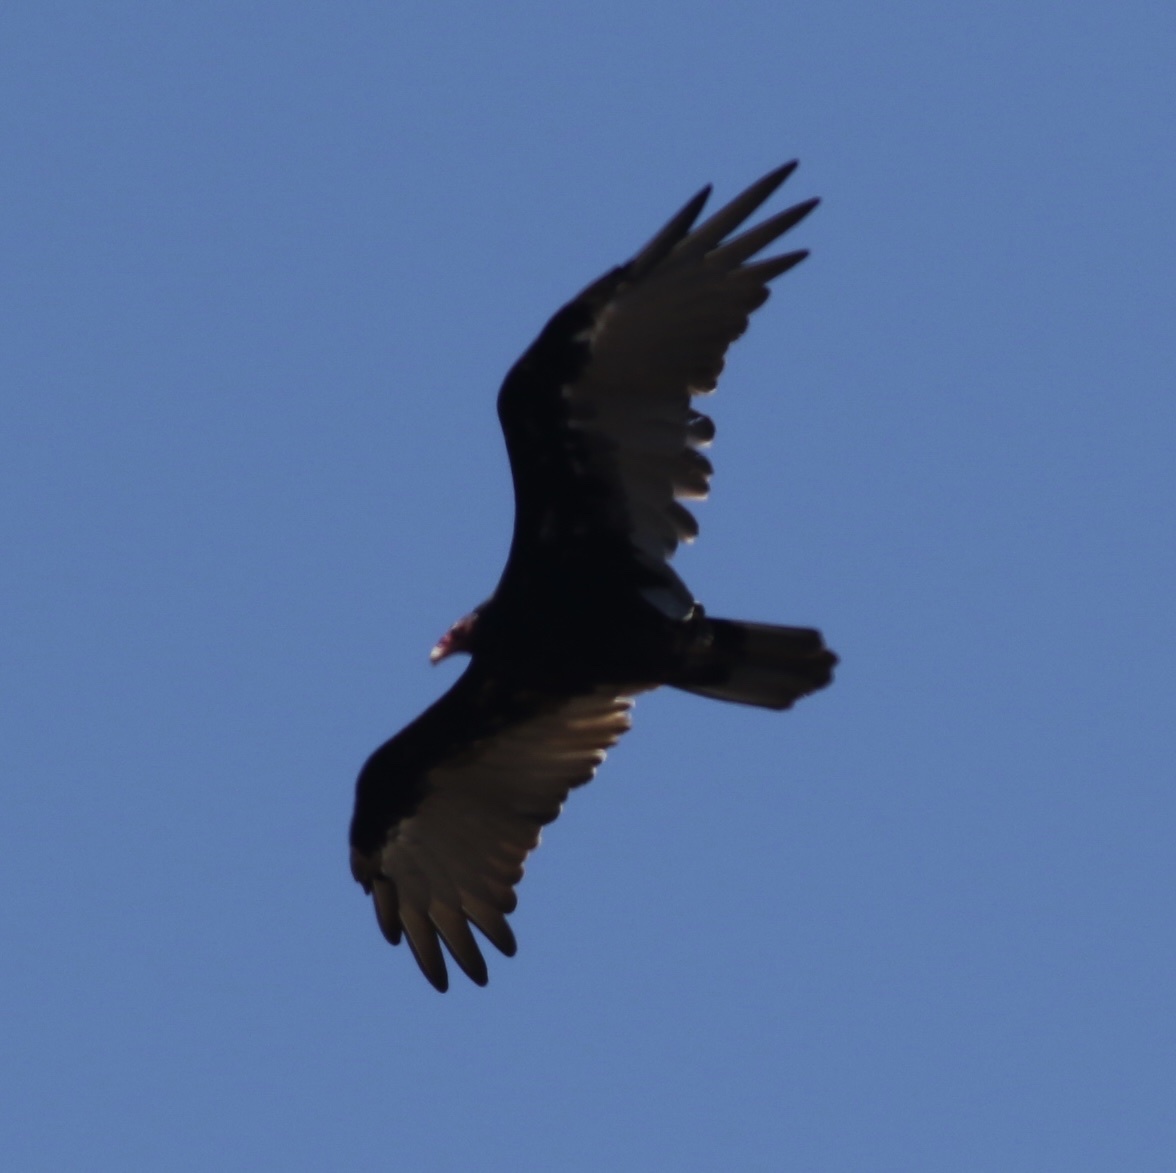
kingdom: Animalia
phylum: Chordata
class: Aves
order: Accipitriformes
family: Cathartidae
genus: Cathartes
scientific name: Cathartes aura
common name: Turkey vulture
